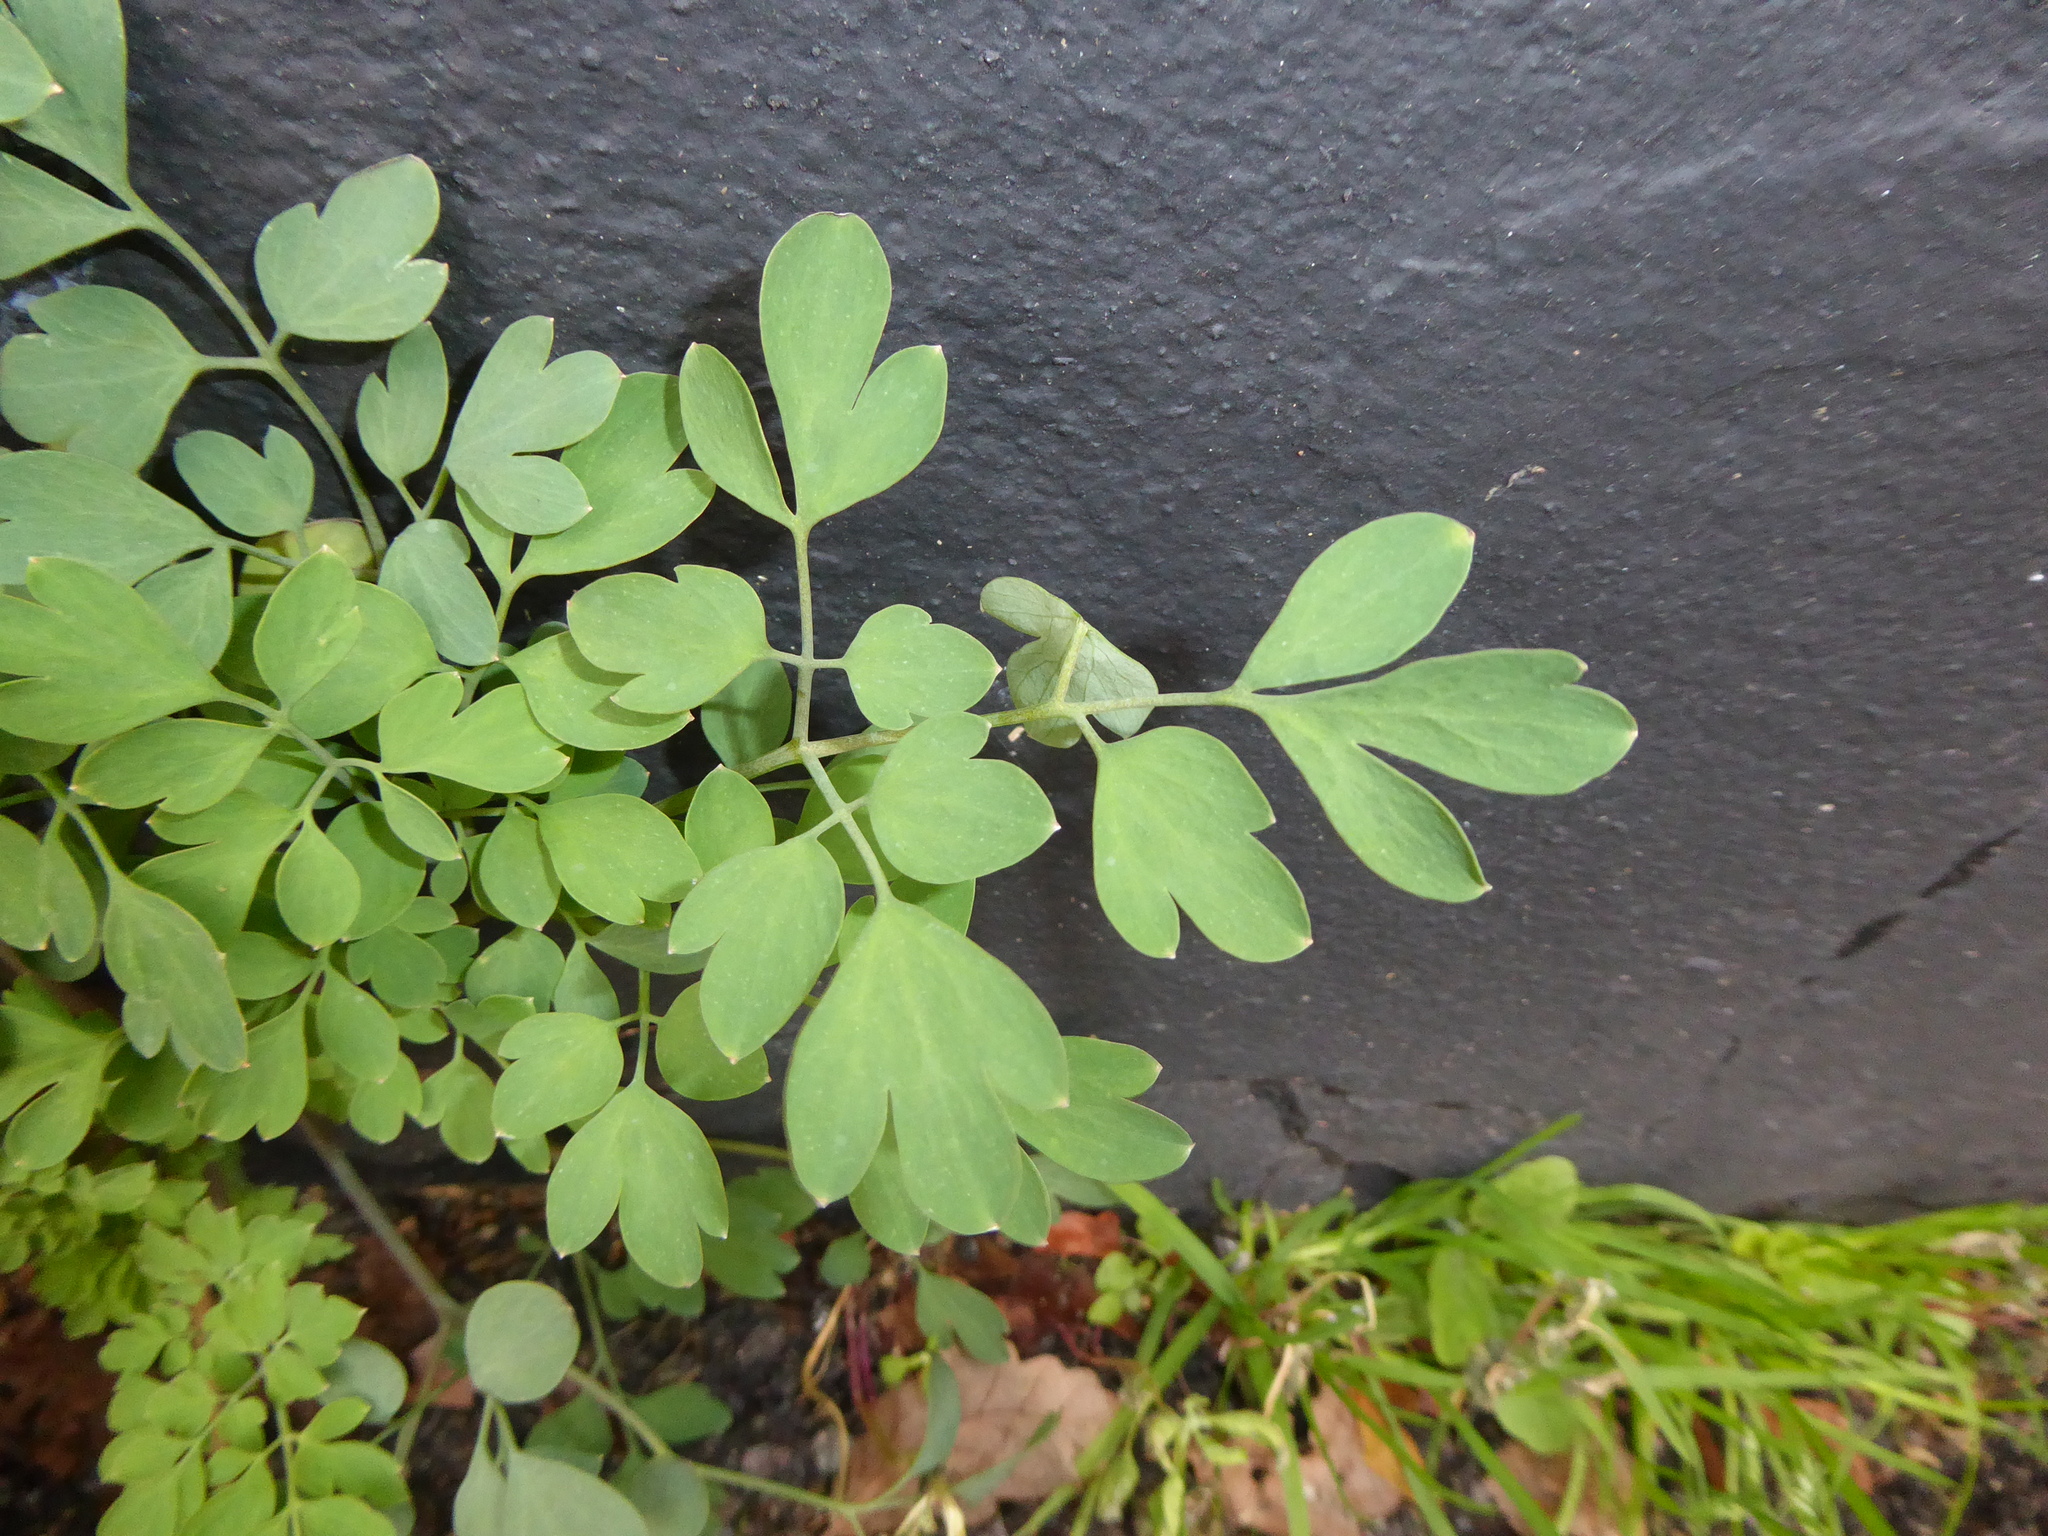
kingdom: Plantae
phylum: Tracheophyta
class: Magnoliopsida
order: Ranunculales
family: Papaveraceae
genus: Pseudofumaria
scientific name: Pseudofumaria lutea
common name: Yellow corydalis
